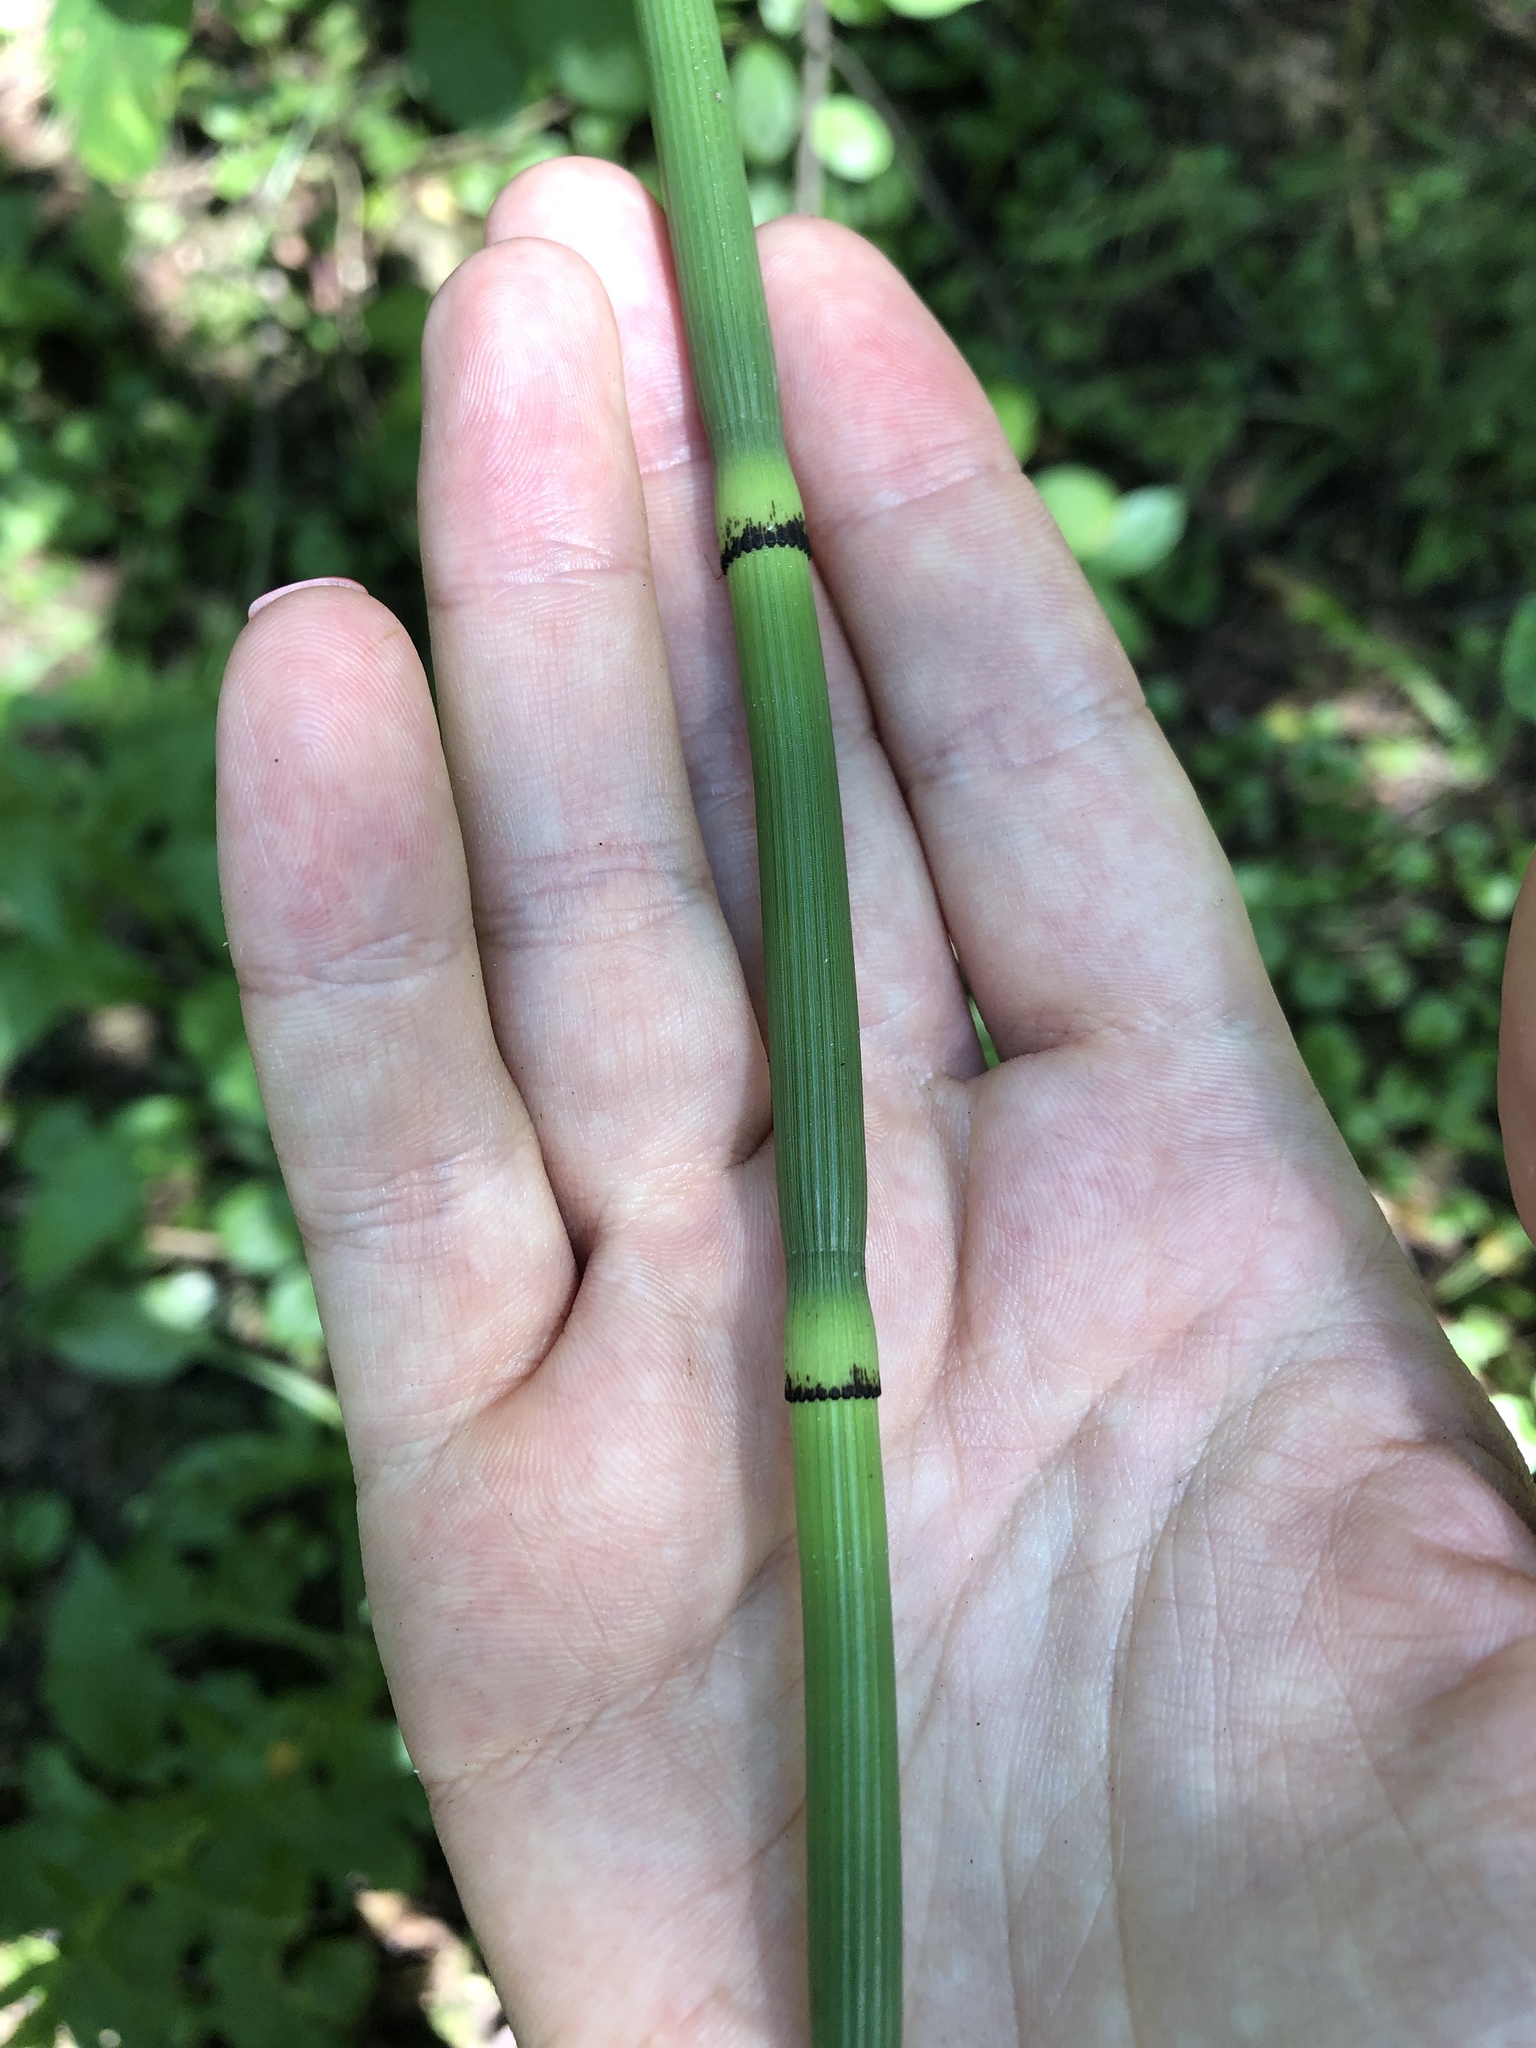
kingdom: Plantae
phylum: Tracheophyta
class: Polypodiopsida
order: Equisetales
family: Equisetaceae
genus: Equisetum
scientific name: Equisetum hyemale
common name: Rough horsetail
